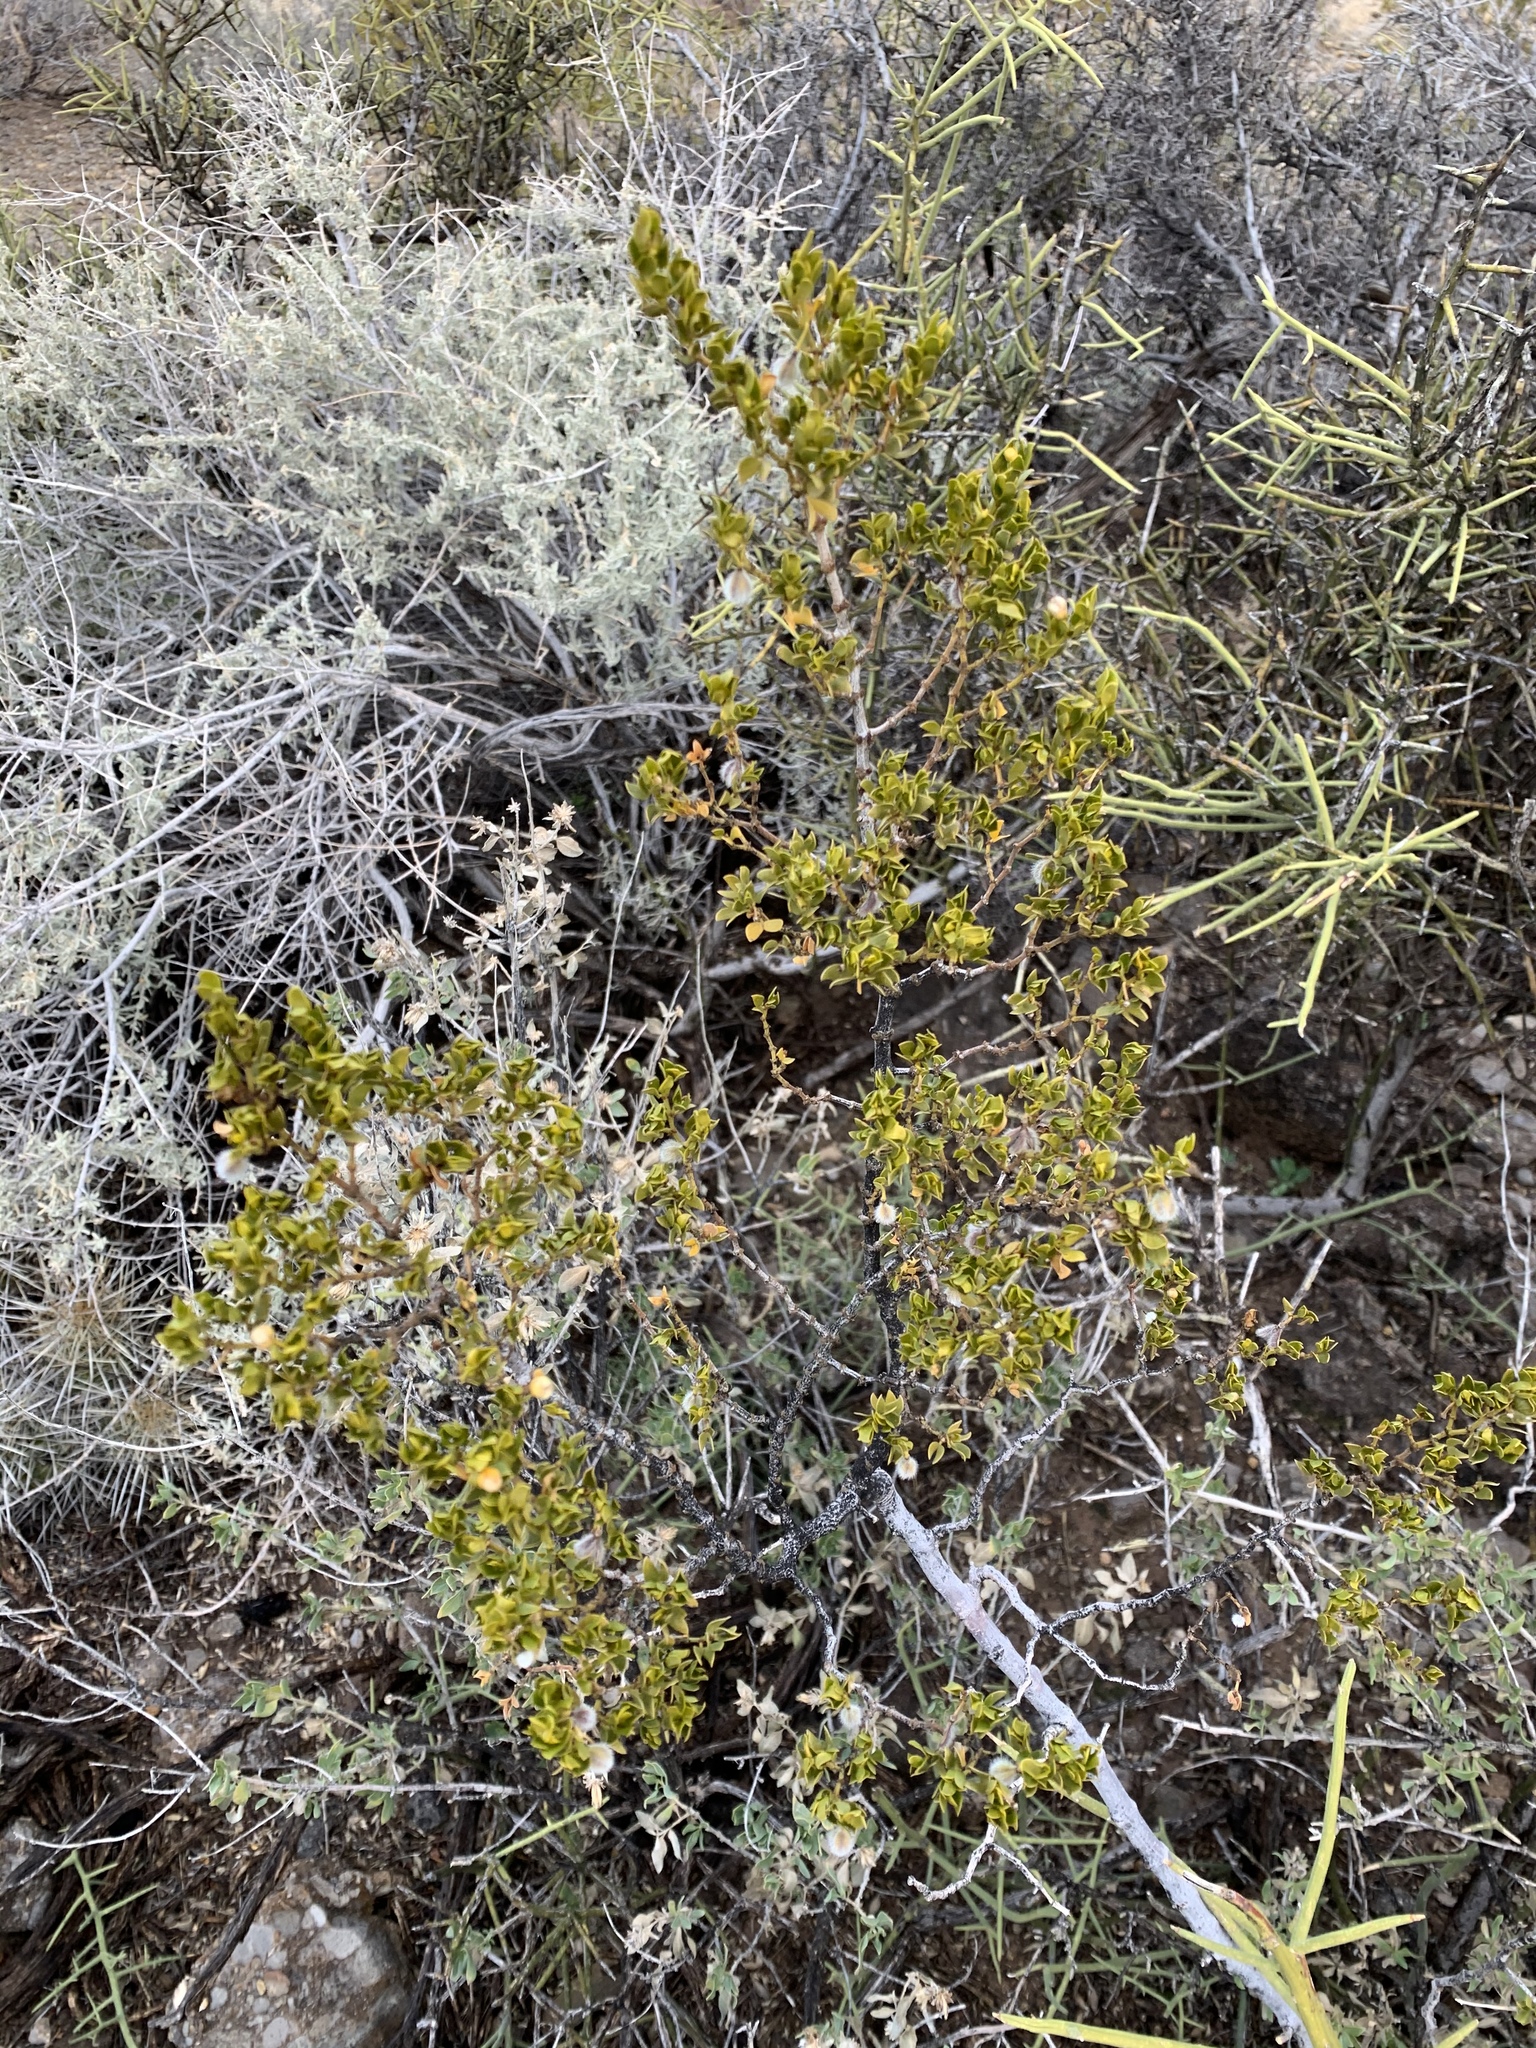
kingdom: Plantae
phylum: Tracheophyta
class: Magnoliopsida
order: Zygophyllales
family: Zygophyllaceae
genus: Larrea
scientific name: Larrea tridentata
